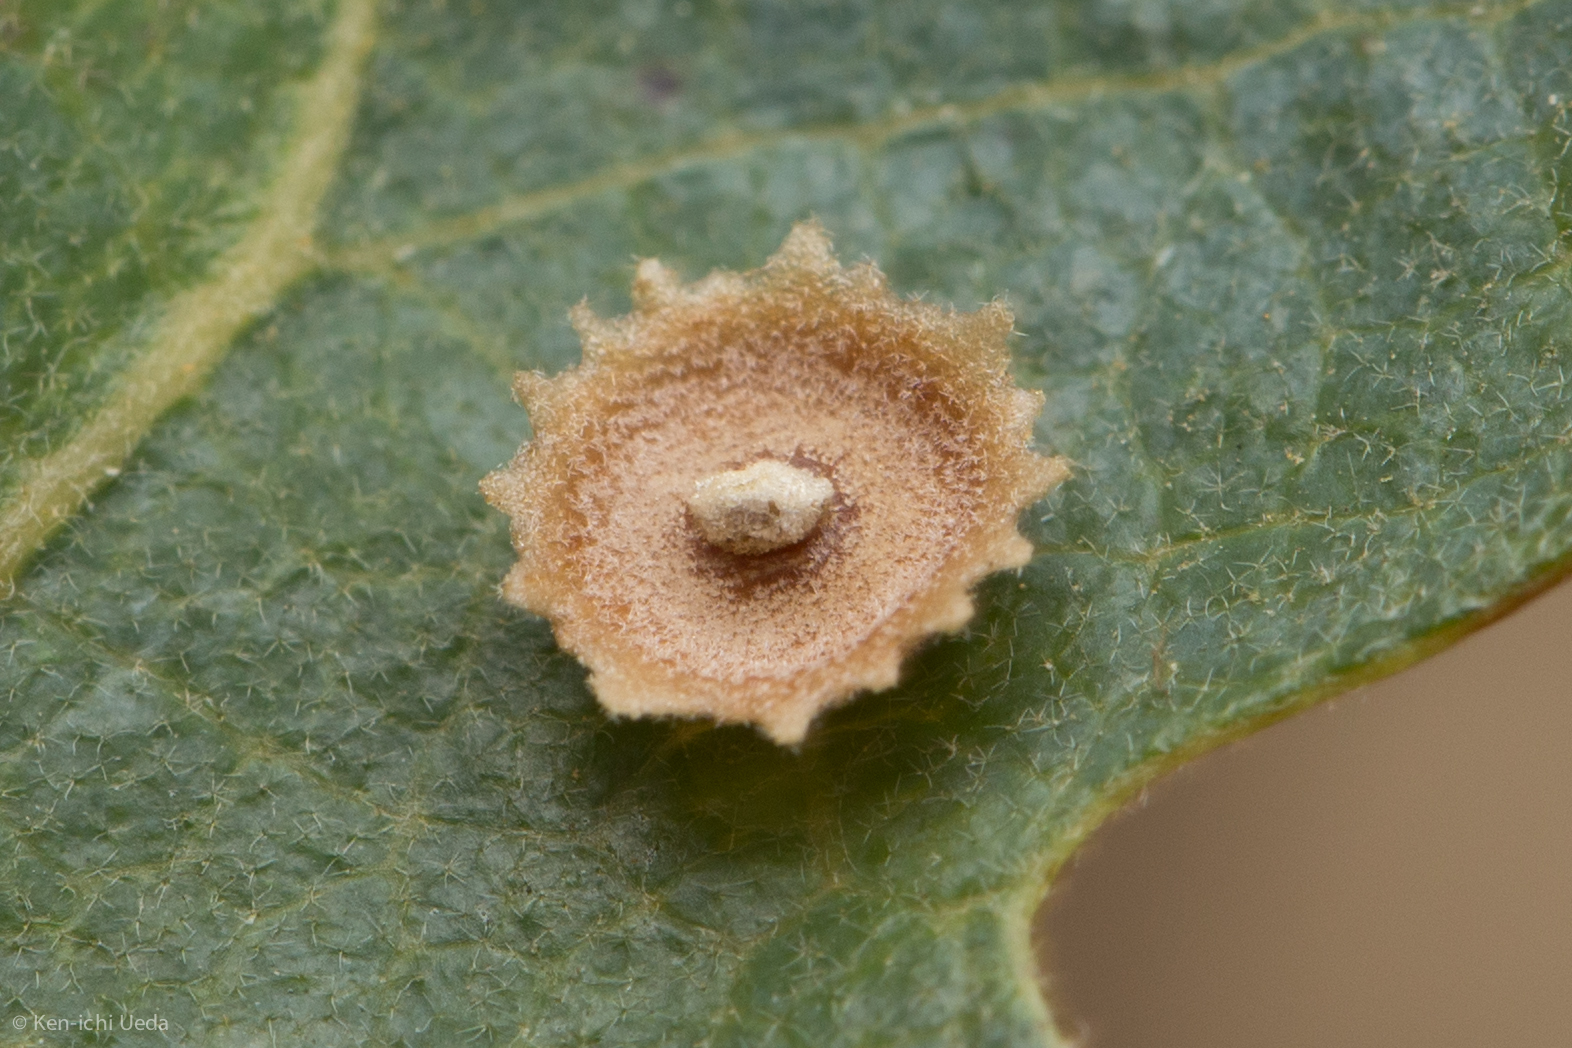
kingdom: Animalia
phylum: Arthropoda
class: Insecta
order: Hymenoptera
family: Cynipidae
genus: Andricus
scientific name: Andricus
